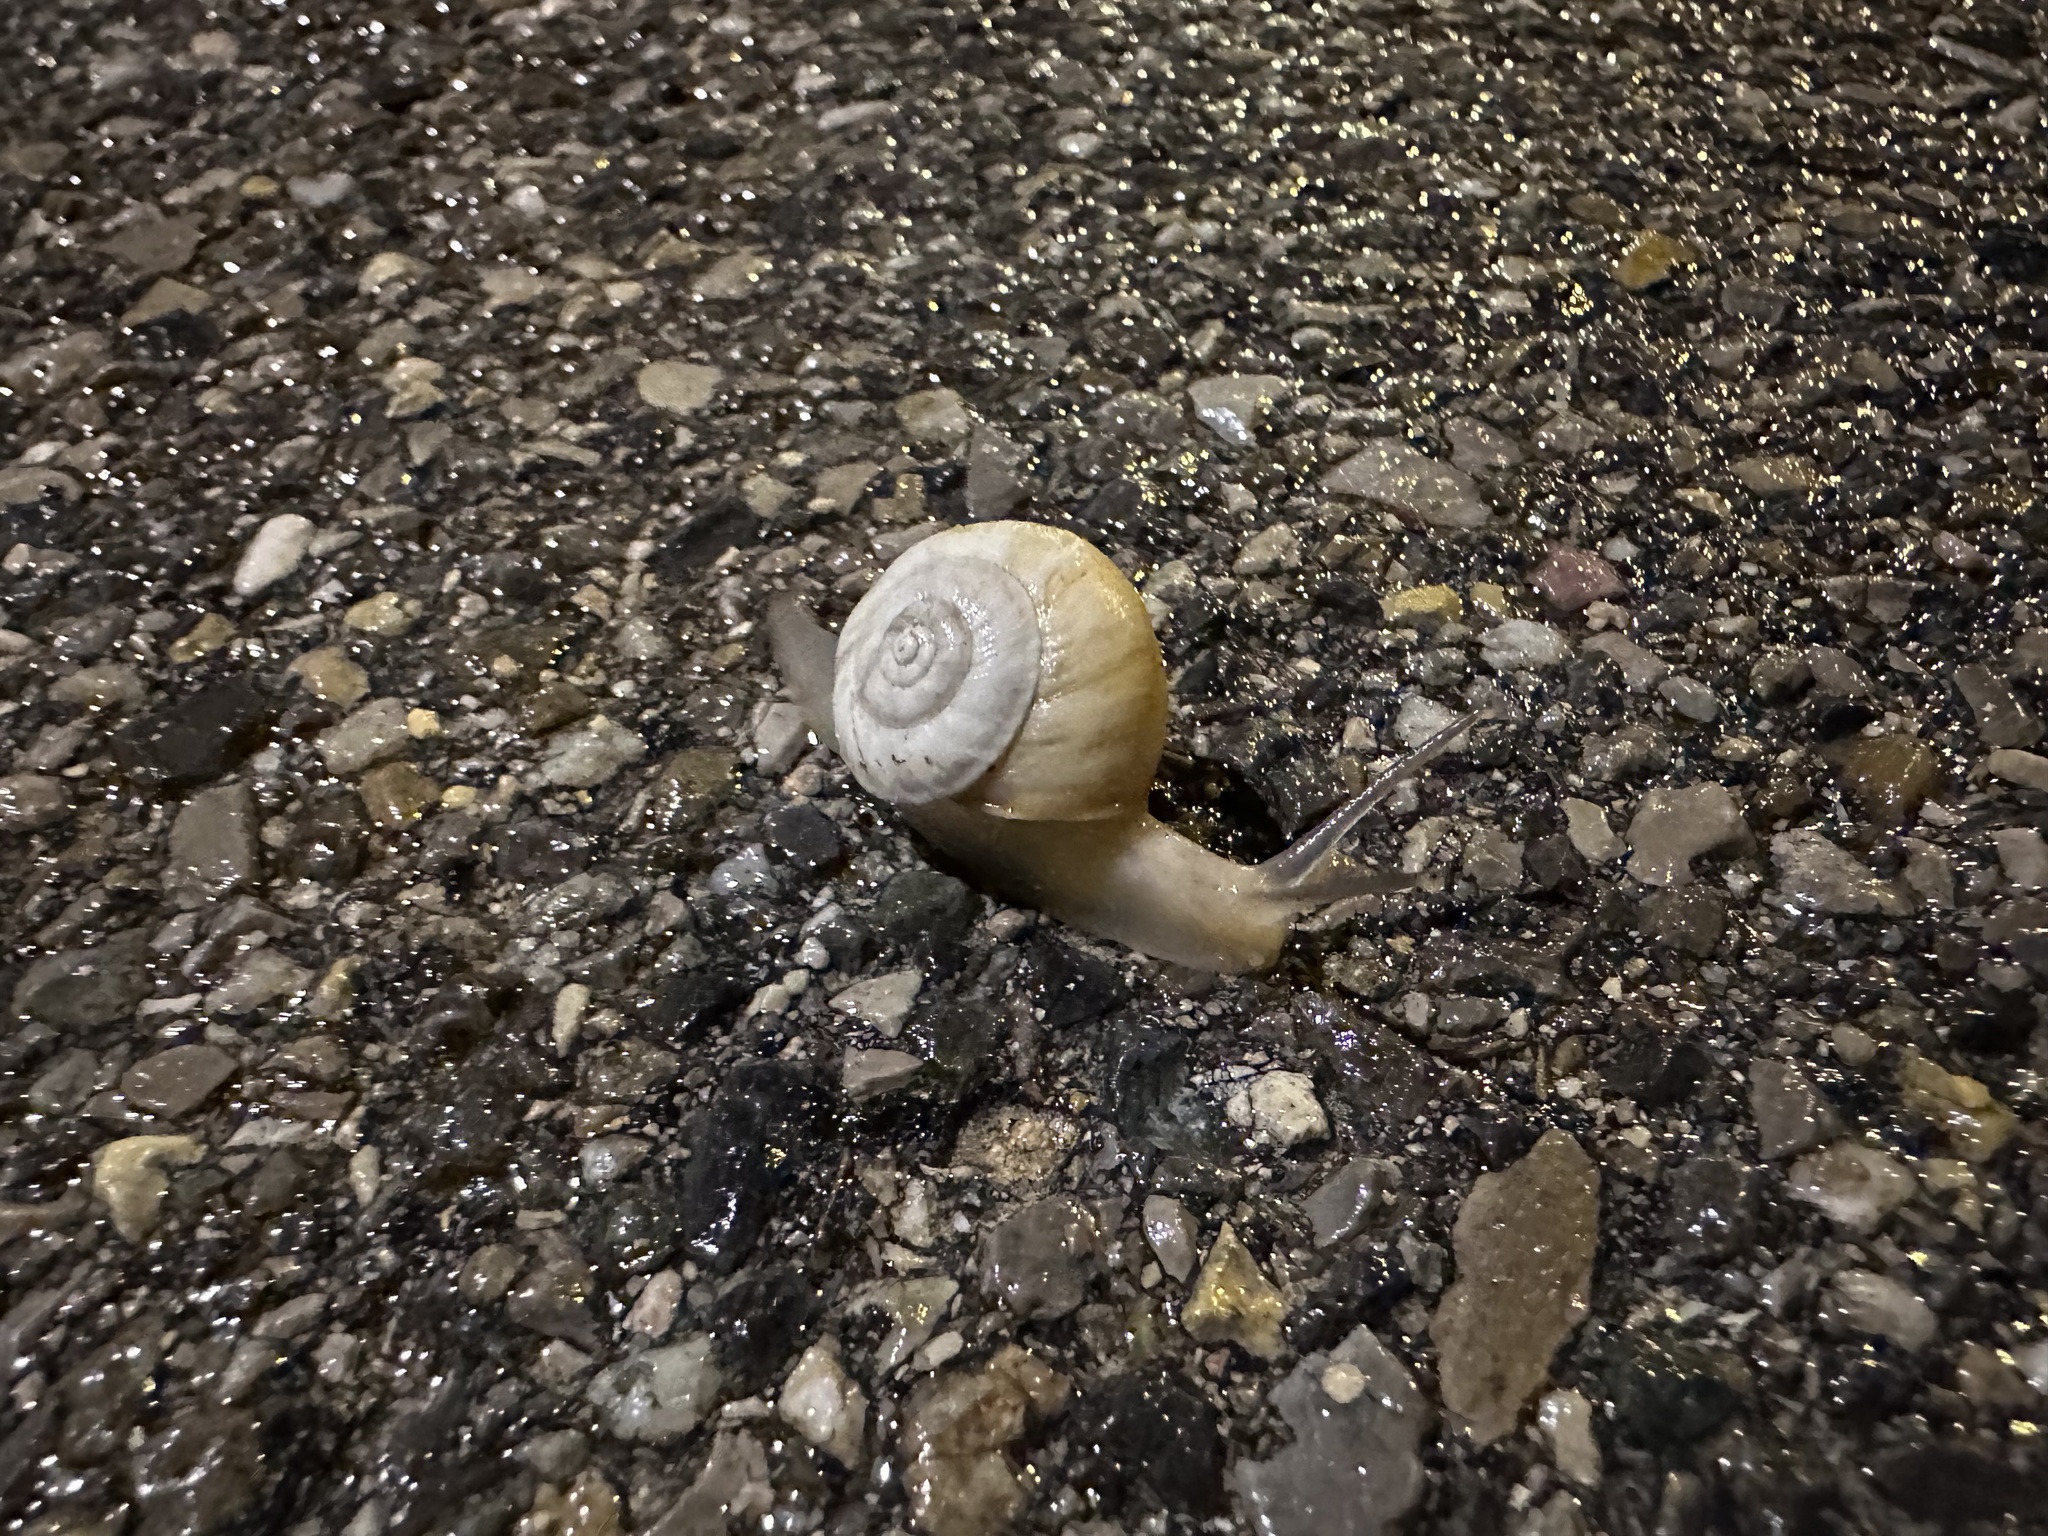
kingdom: Animalia
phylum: Mollusca
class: Gastropoda
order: Stylommatophora
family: Helicidae
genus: Theba
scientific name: Theba pisana
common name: White snail
